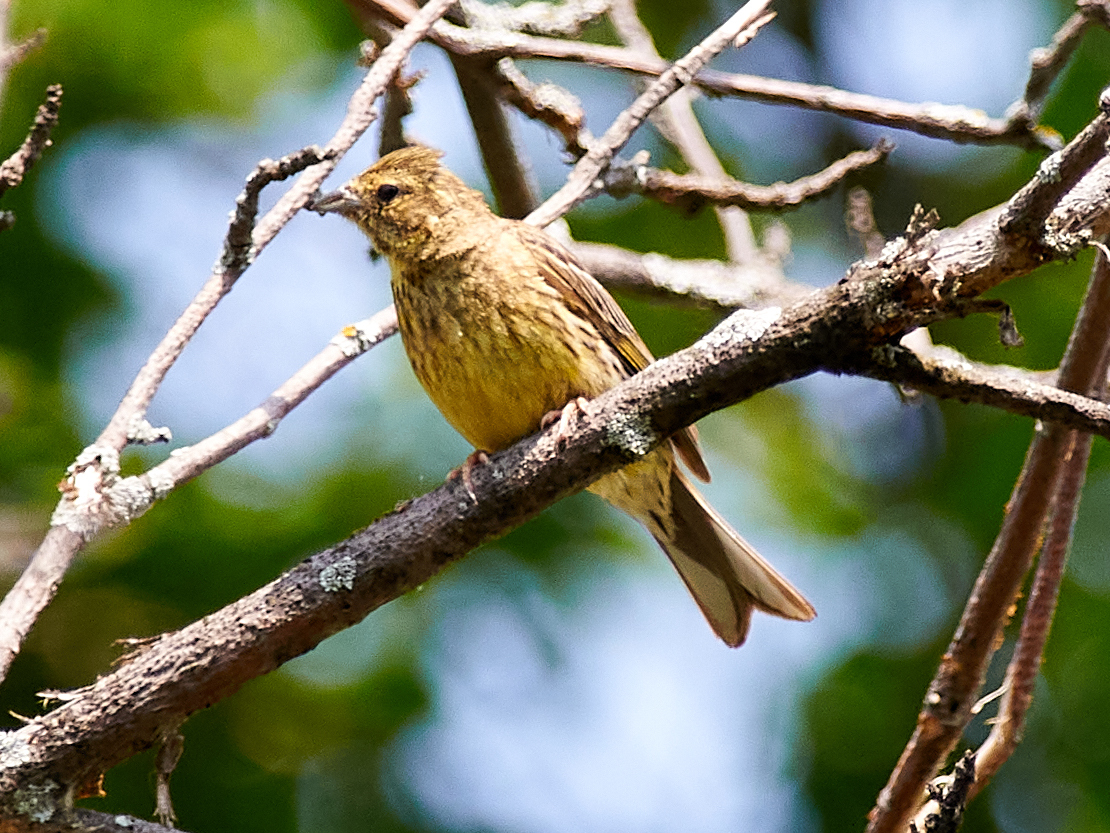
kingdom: Animalia
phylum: Chordata
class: Aves
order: Passeriformes
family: Emberizidae
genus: Emberiza
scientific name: Emberiza citrinella
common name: Yellowhammer
